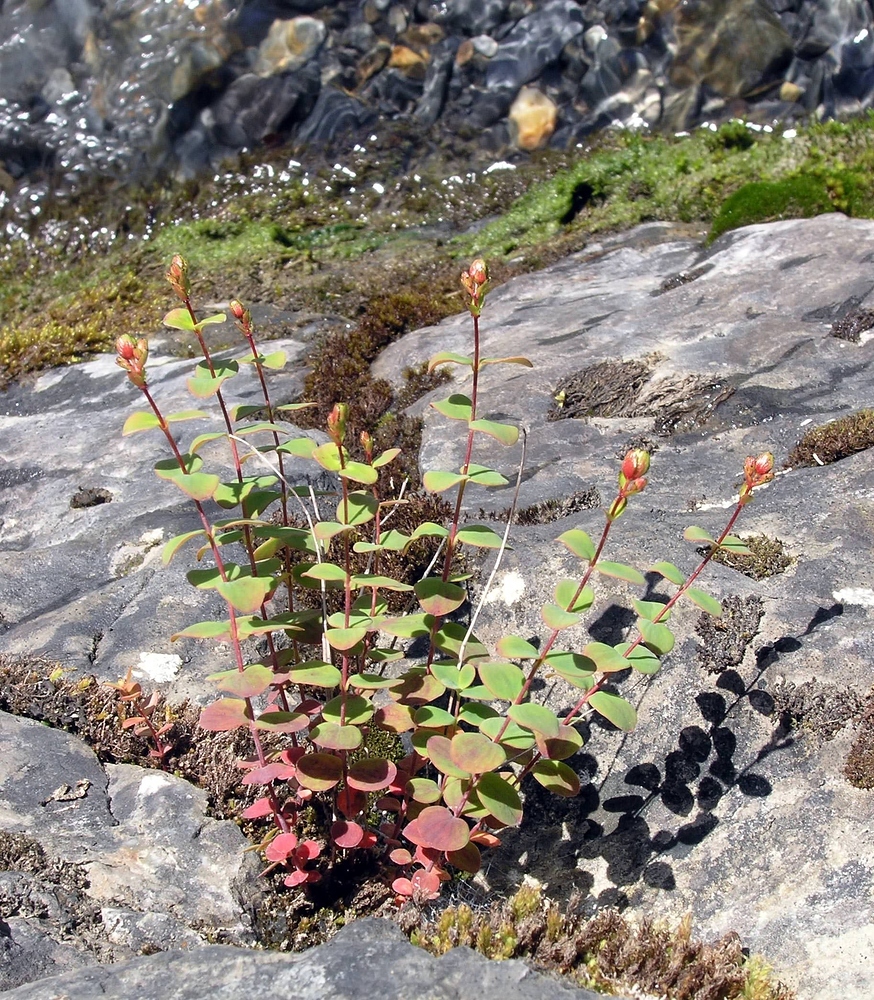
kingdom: Plantae
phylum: Tracheophyta
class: Magnoliopsida
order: Malpighiales
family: Hypericaceae
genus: Hypericum
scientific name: Hypericum nummularium
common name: Round-leaved st john's-wort
